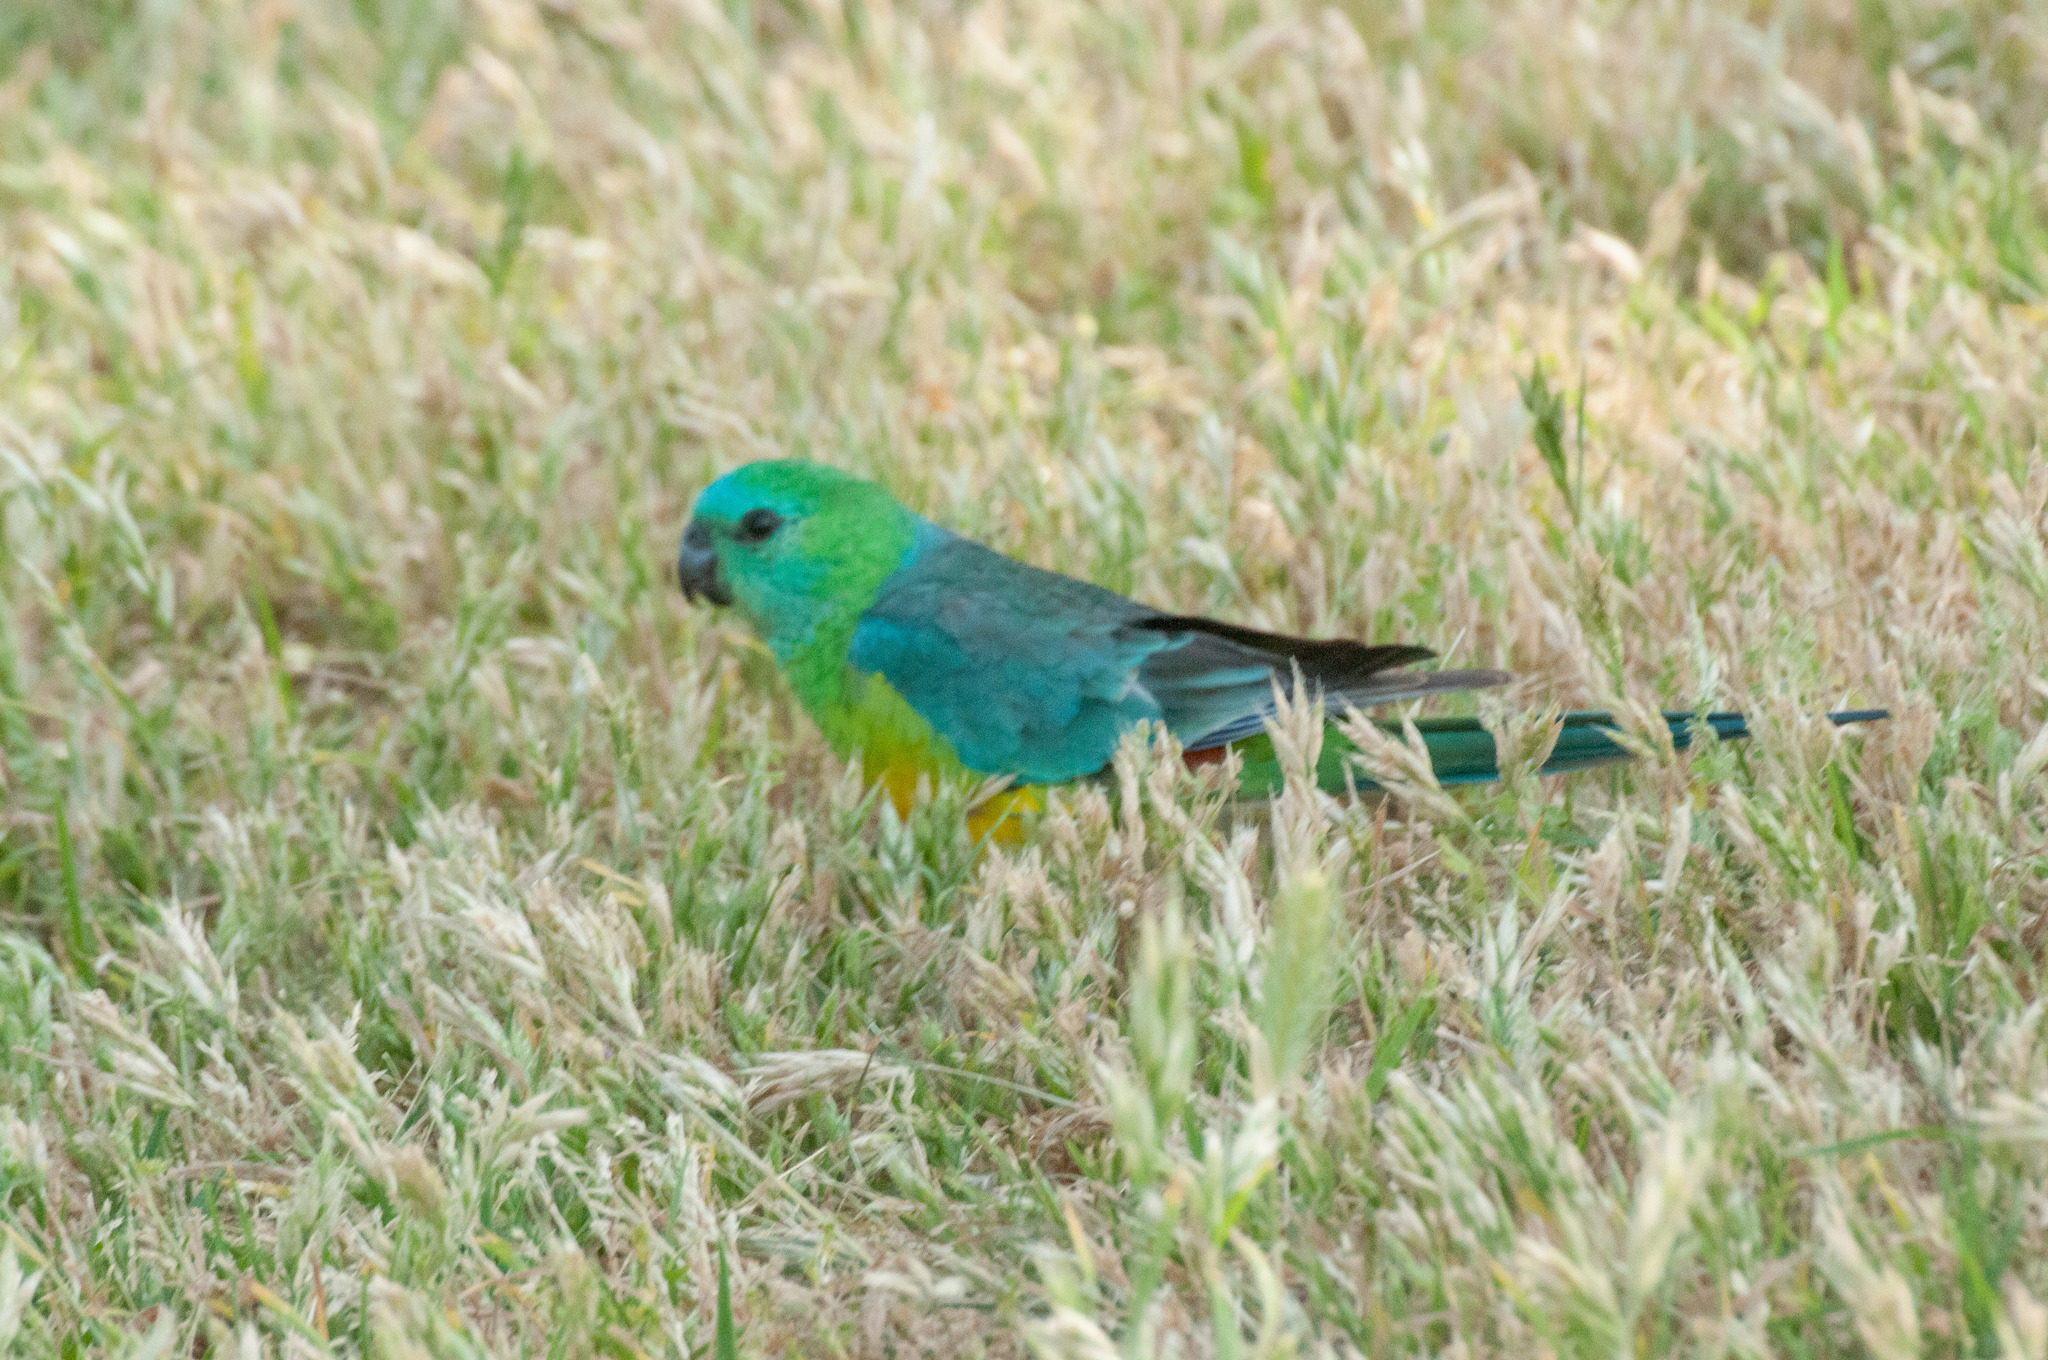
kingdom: Animalia
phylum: Chordata
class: Aves
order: Psittaciformes
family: Psittacidae
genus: Psephotus
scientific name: Psephotus haematonotus
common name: Red-rumped parrot
